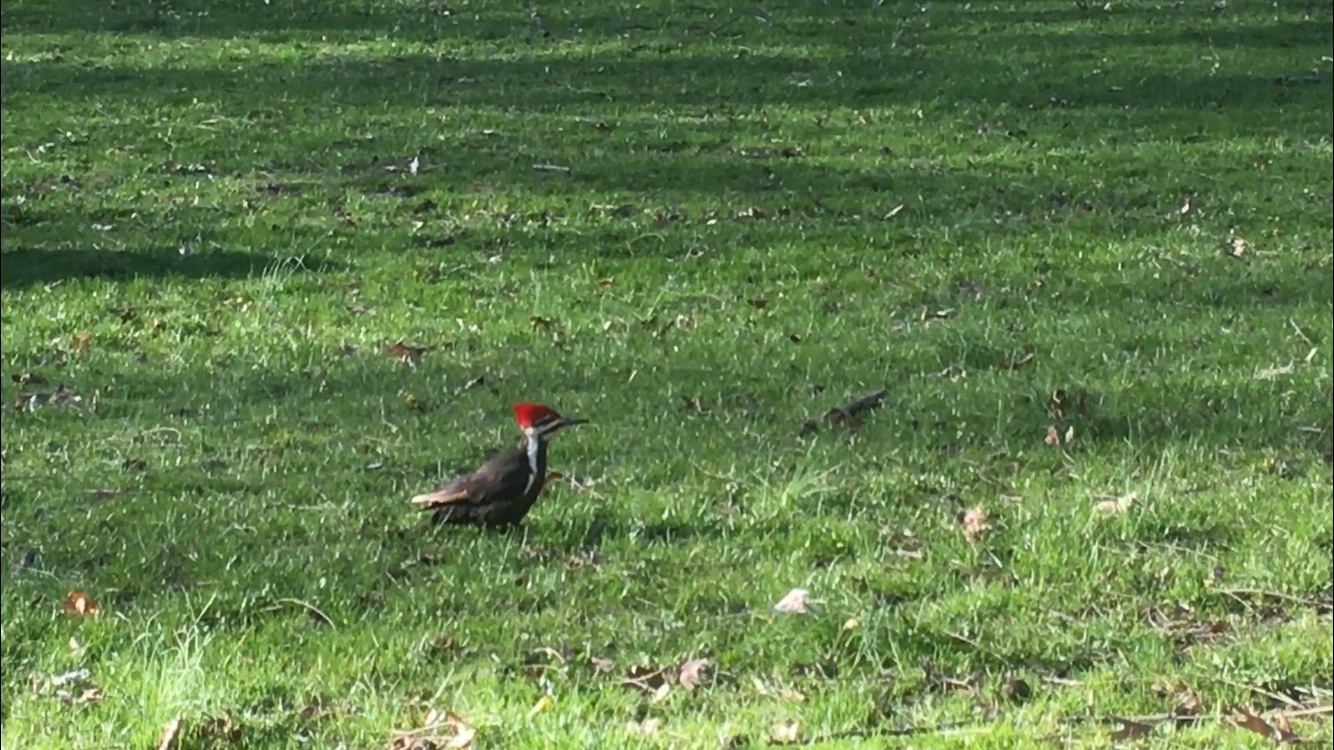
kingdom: Animalia
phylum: Chordata
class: Aves
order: Piciformes
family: Picidae
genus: Dryocopus
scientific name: Dryocopus pileatus
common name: Pileated woodpecker
